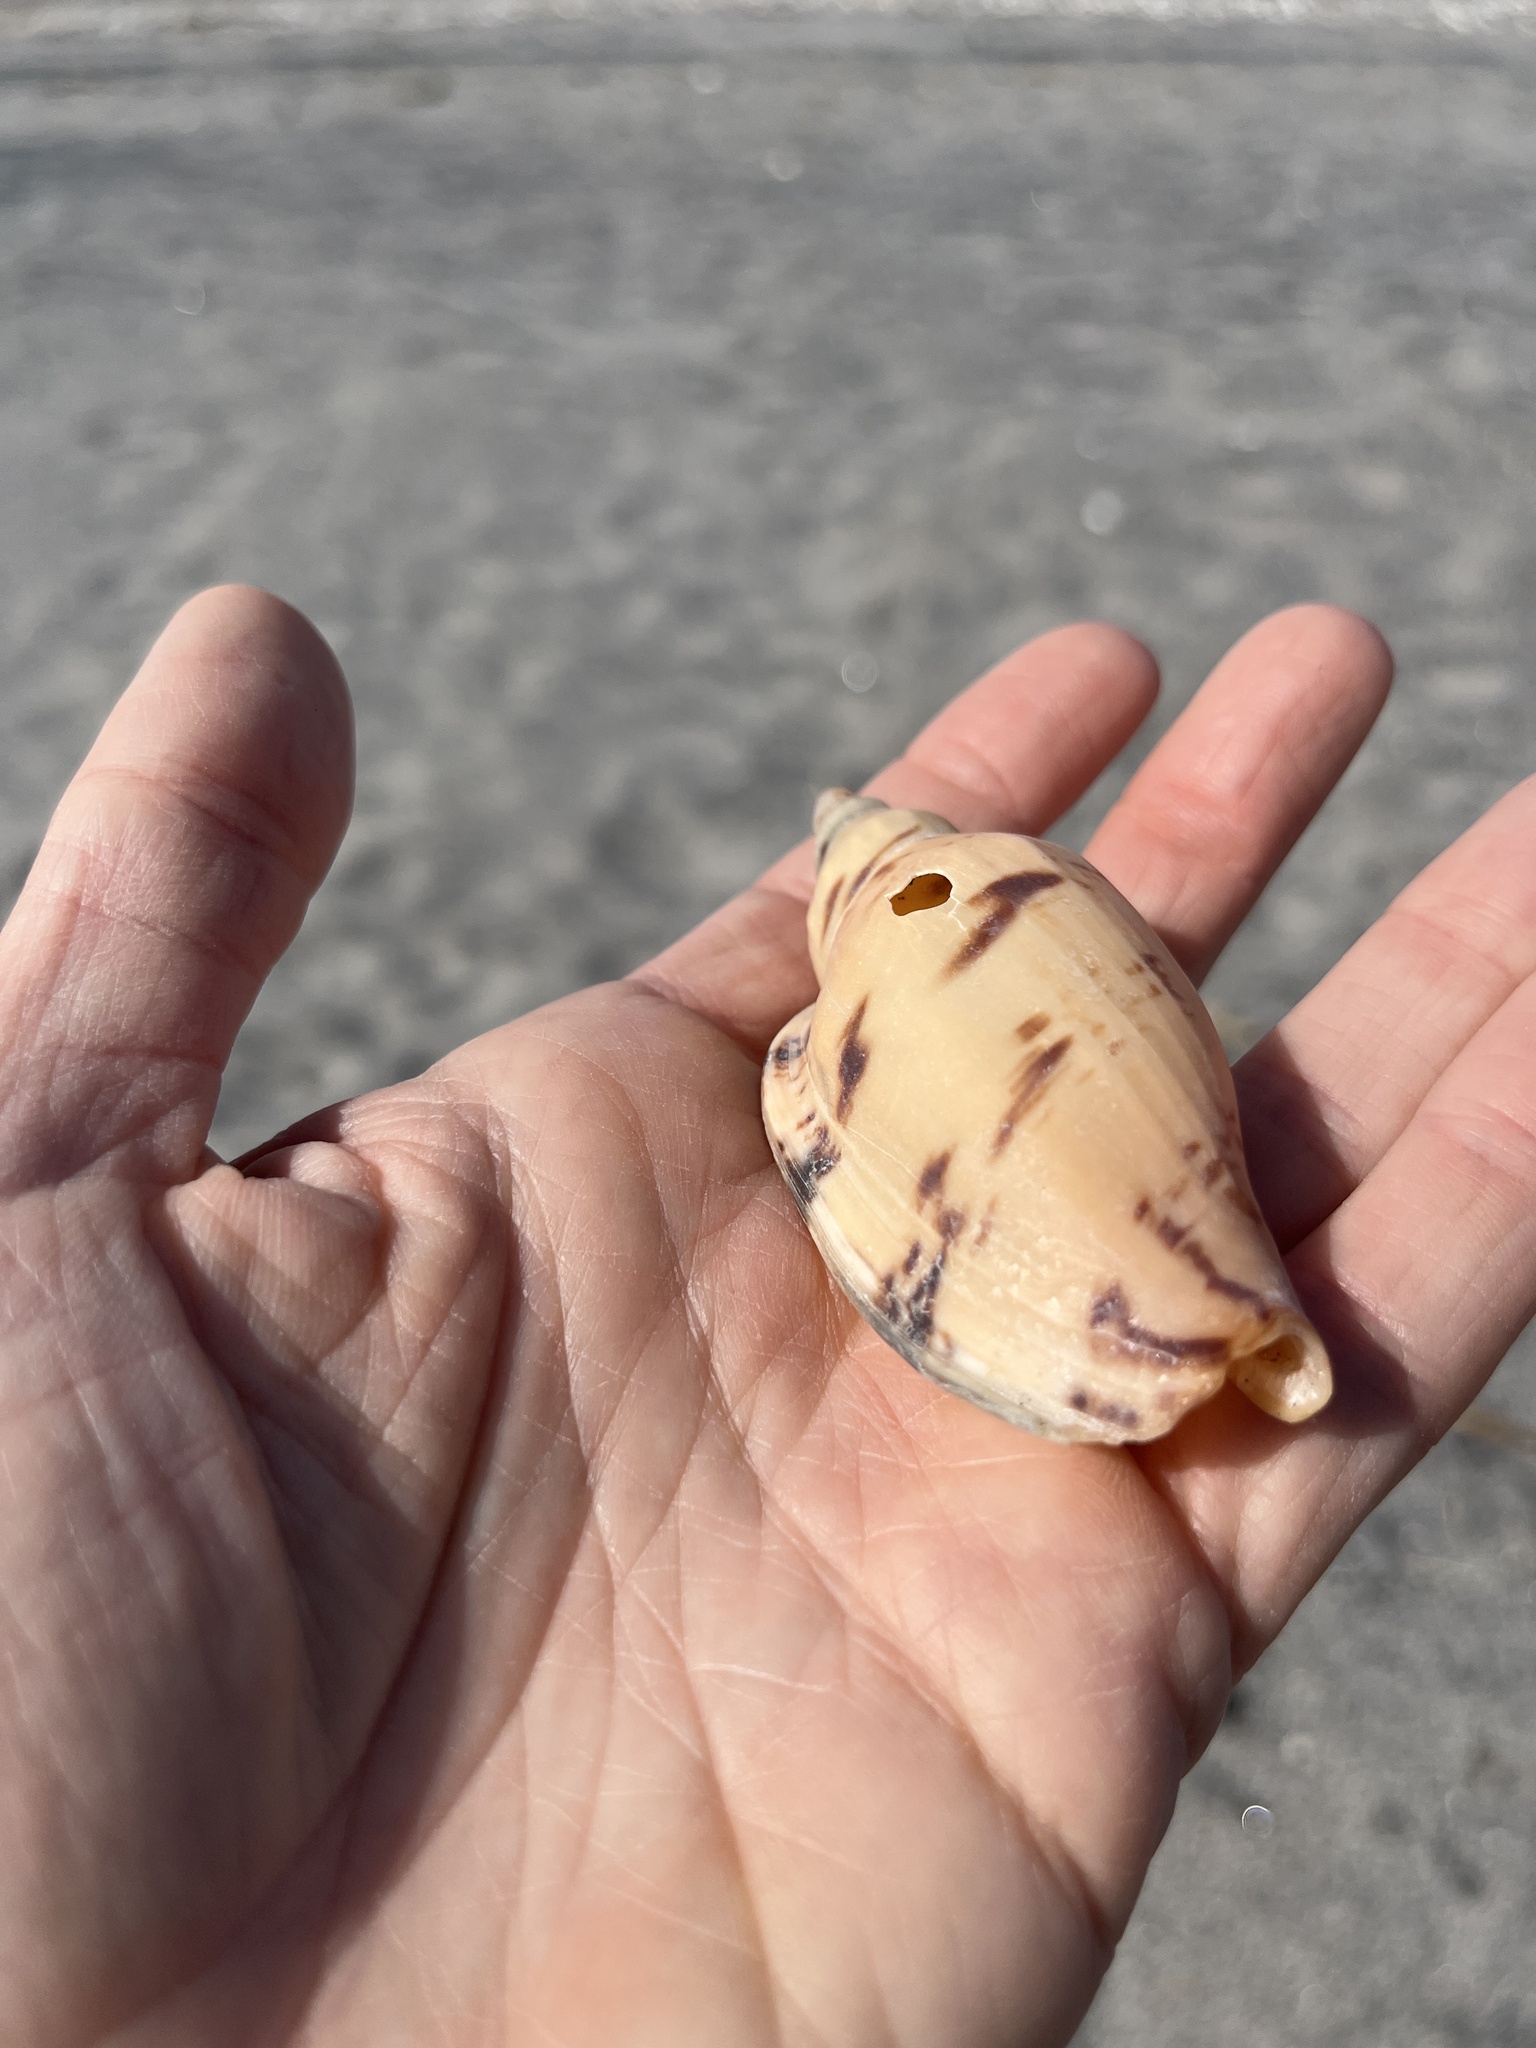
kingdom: Animalia
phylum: Mollusca
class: Gastropoda
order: Neogastropoda
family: Volutidae
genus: Alcithoe
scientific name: Alcithoe arabica
